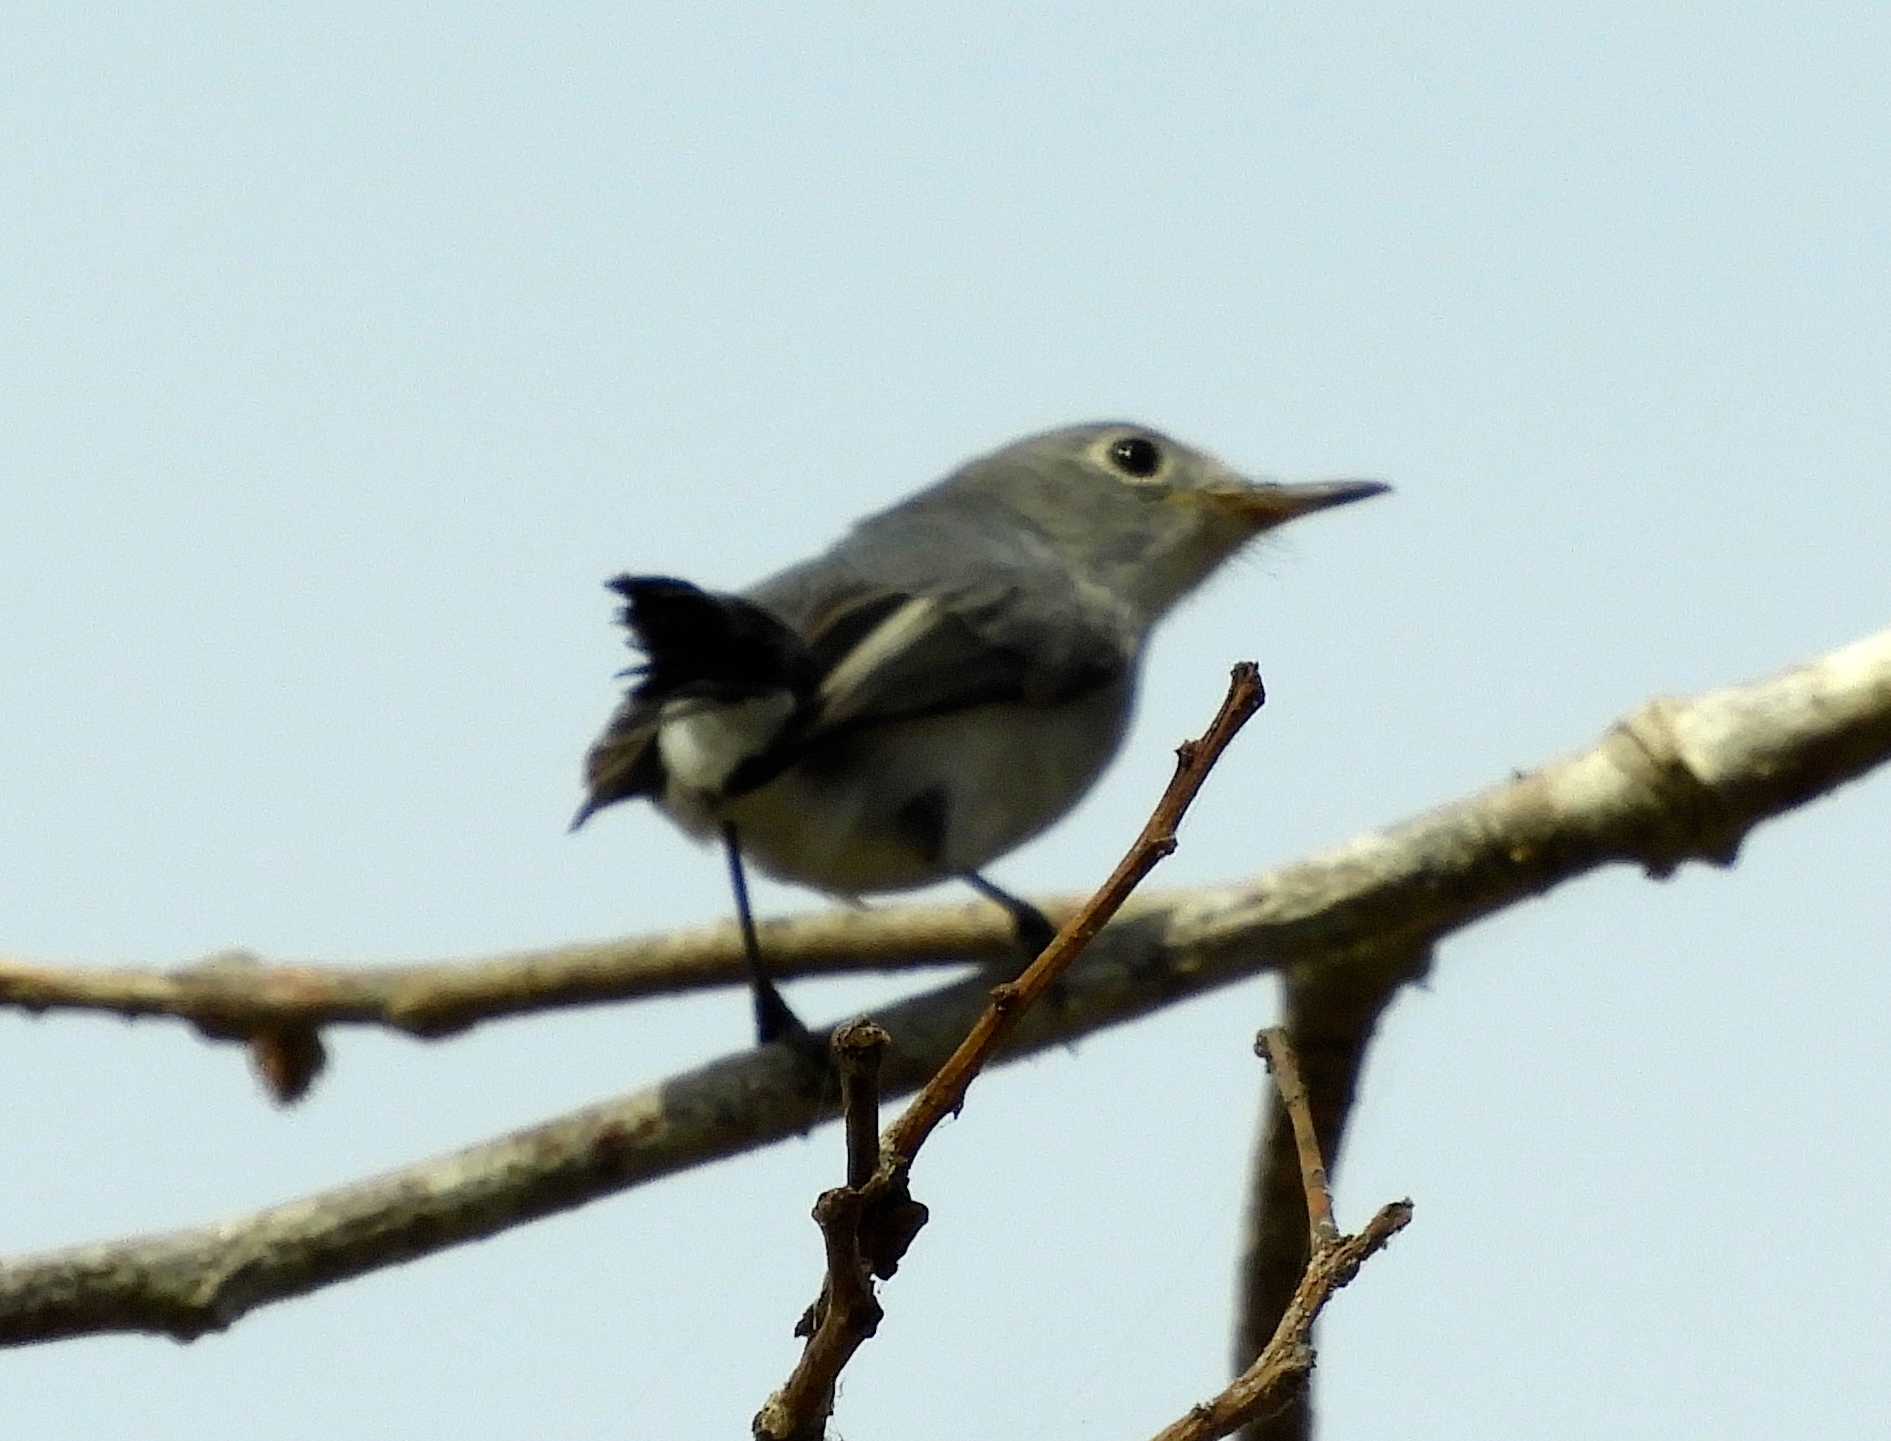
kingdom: Animalia
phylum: Chordata
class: Aves
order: Passeriformes
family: Polioptilidae
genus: Polioptila
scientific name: Polioptila nigriceps
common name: Black-capped gnatcatcher
